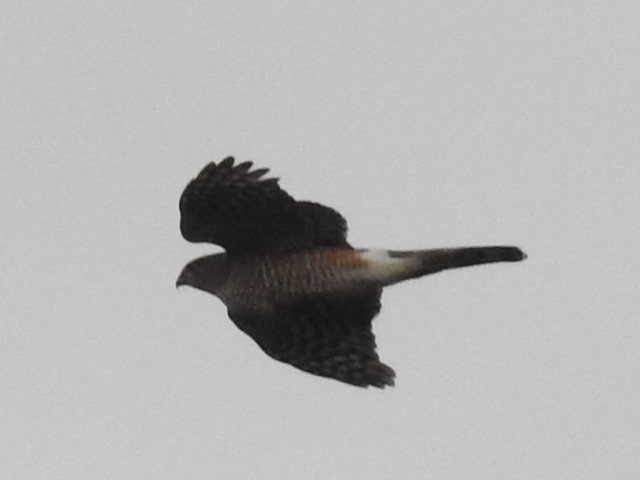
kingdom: Animalia
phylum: Chordata
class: Aves
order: Accipitriformes
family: Accipitridae
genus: Accipiter
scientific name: Accipiter cooperii
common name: Cooper's hawk
